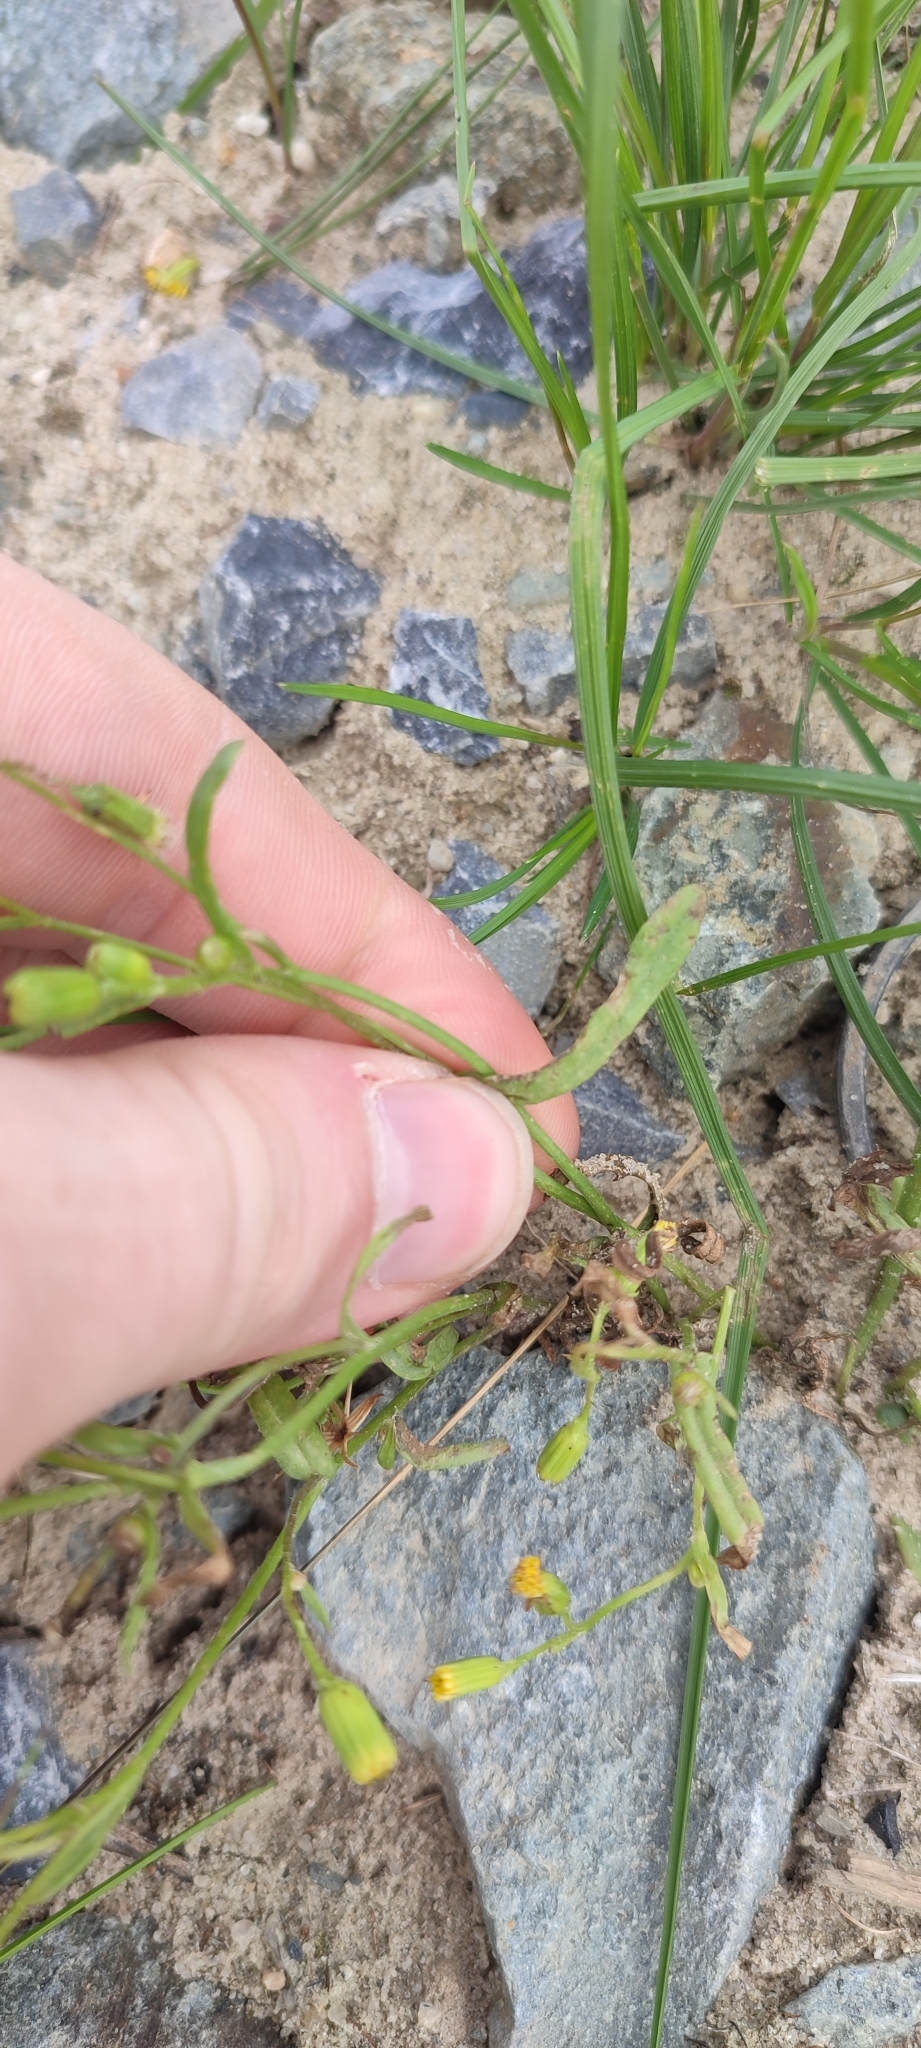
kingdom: Plantae
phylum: Tracheophyta
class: Magnoliopsida
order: Asterales
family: Asteraceae
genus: Senecio
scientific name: Senecio dubitabilis
